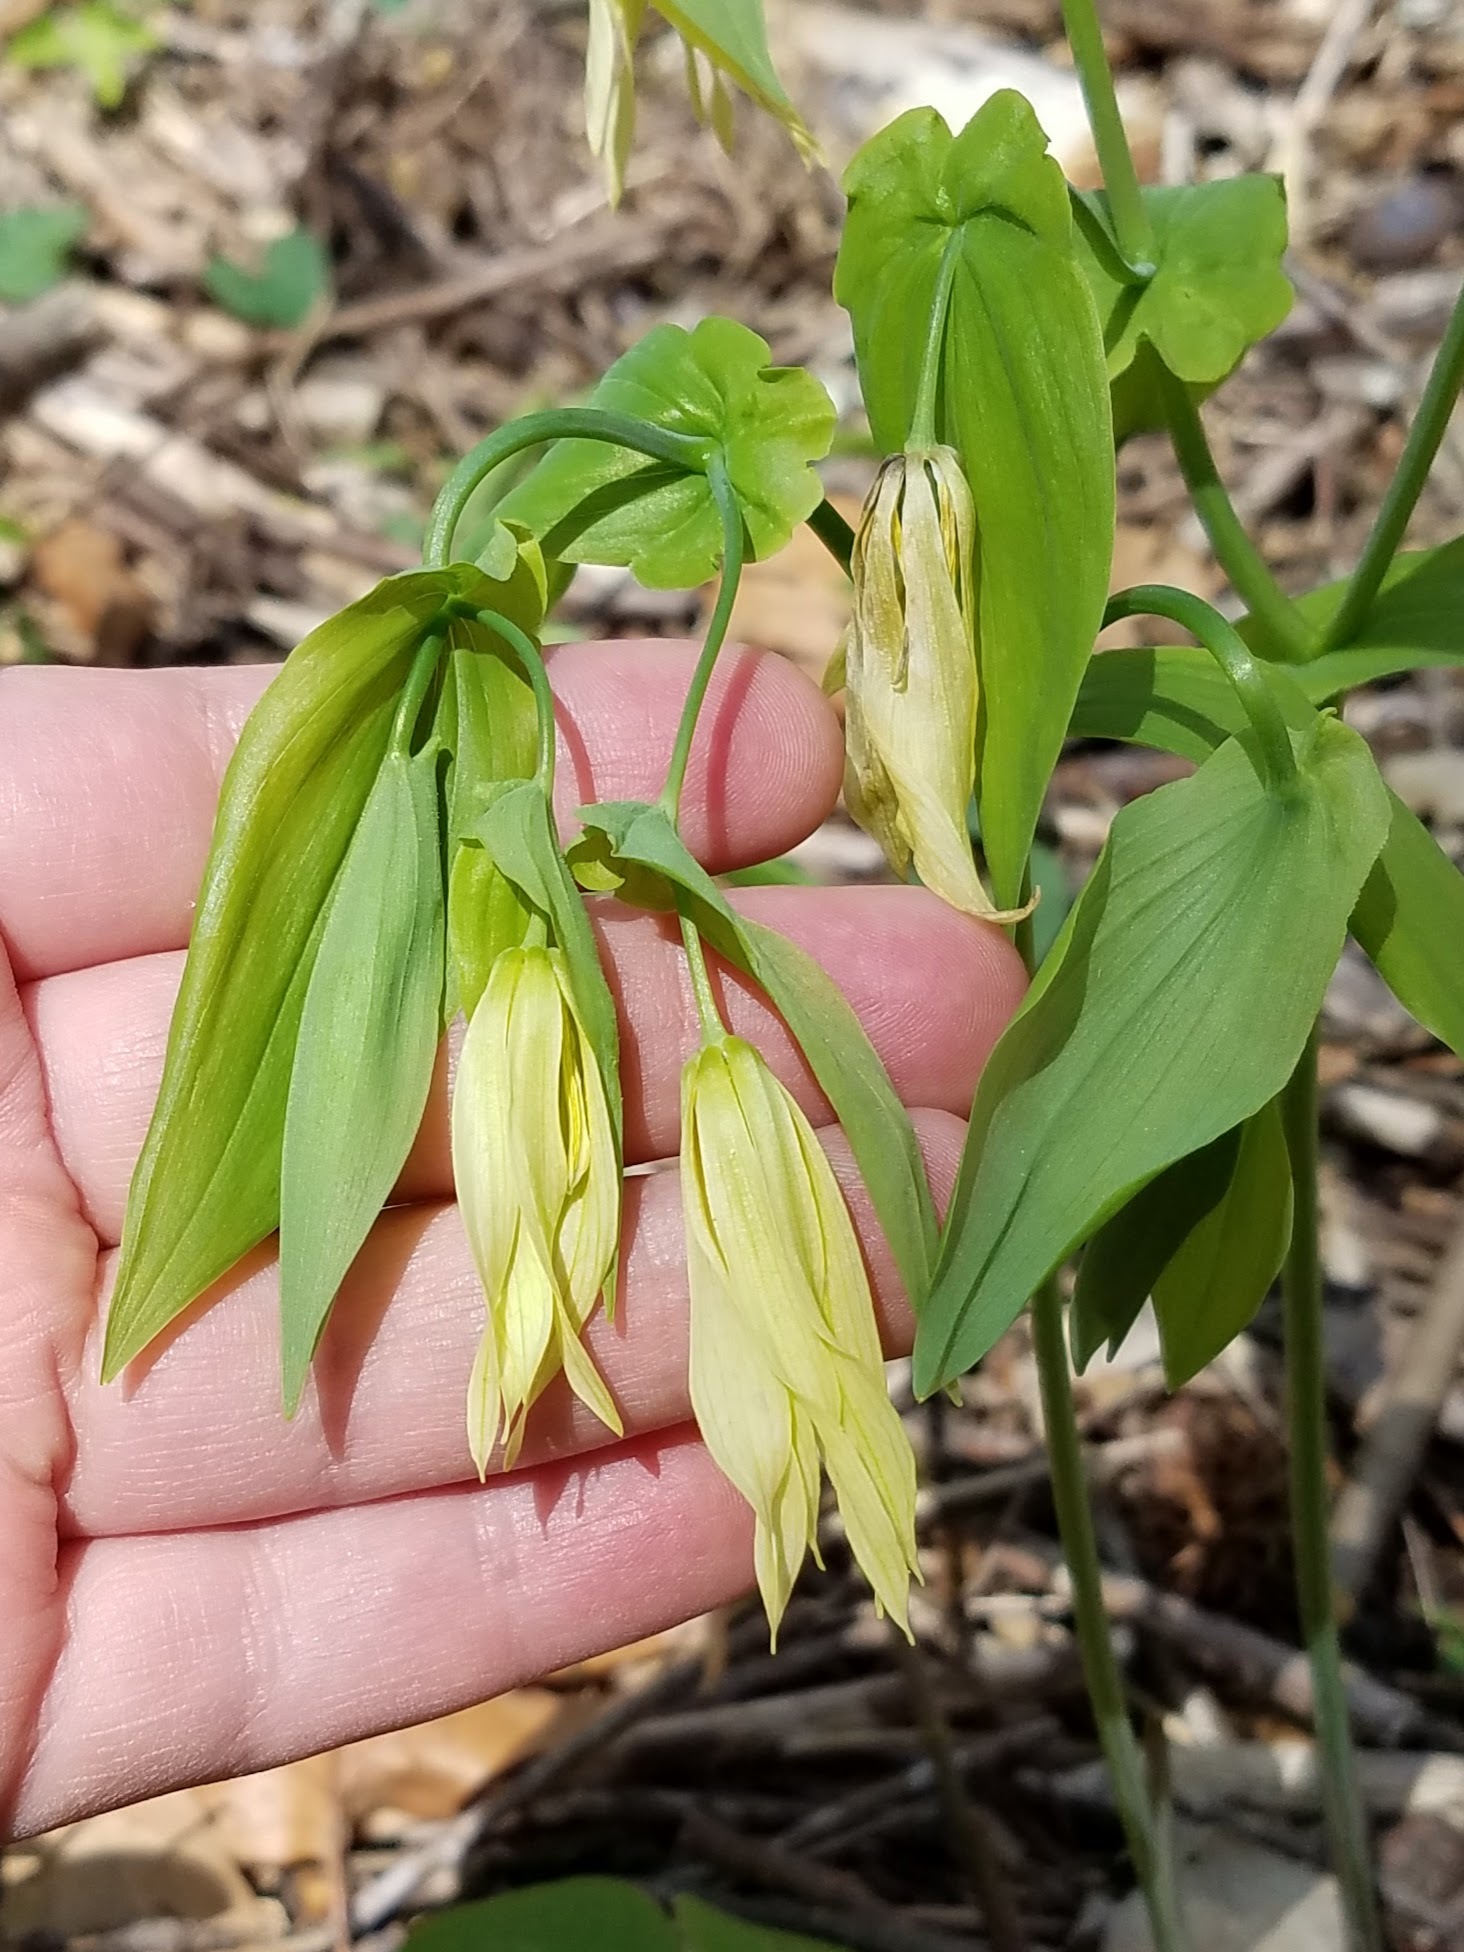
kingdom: Plantae
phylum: Tracheophyta
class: Liliopsida
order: Liliales
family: Colchicaceae
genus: Uvularia
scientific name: Uvularia grandiflora
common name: Bellwort
